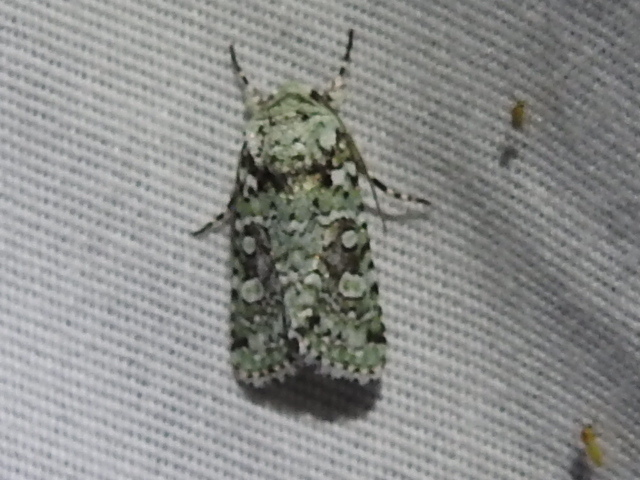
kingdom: Animalia
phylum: Arthropoda
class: Insecta
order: Lepidoptera
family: Noctuidae
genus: Lacinipolia
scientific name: Lacinipolia laudabilis
